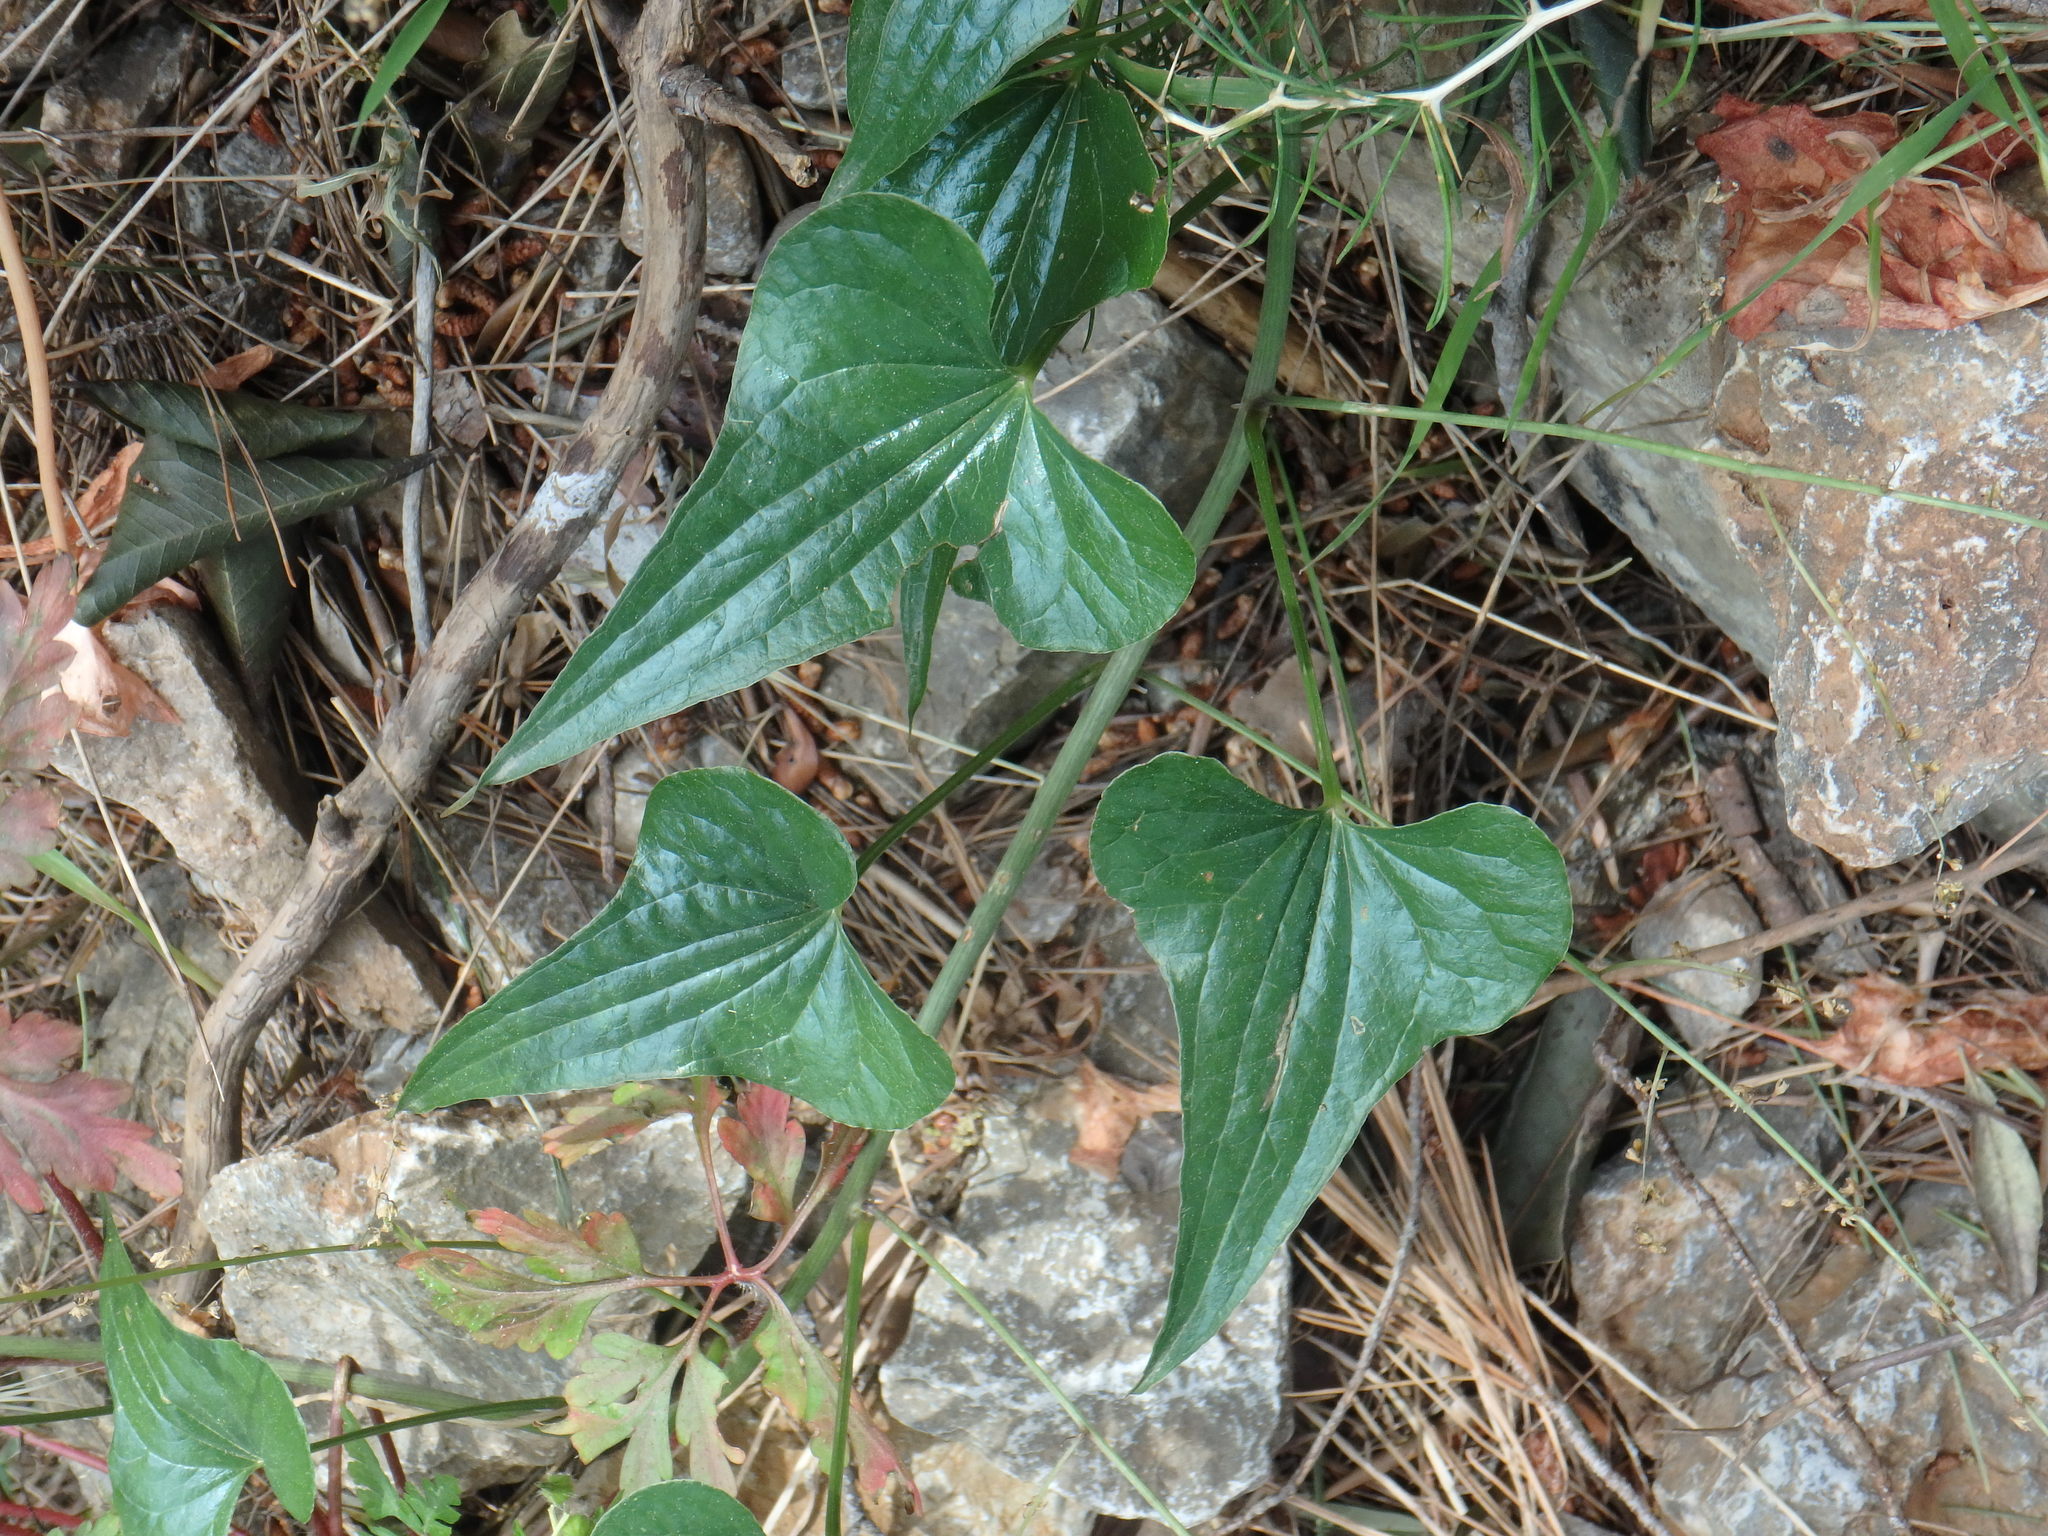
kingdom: Plantae
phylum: Tracheophyta
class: Liliopsida
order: Dioscoreales
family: Dioscoreaceae
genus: Dioscorea
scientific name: Dioscorea communis
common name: Black-bindweed
